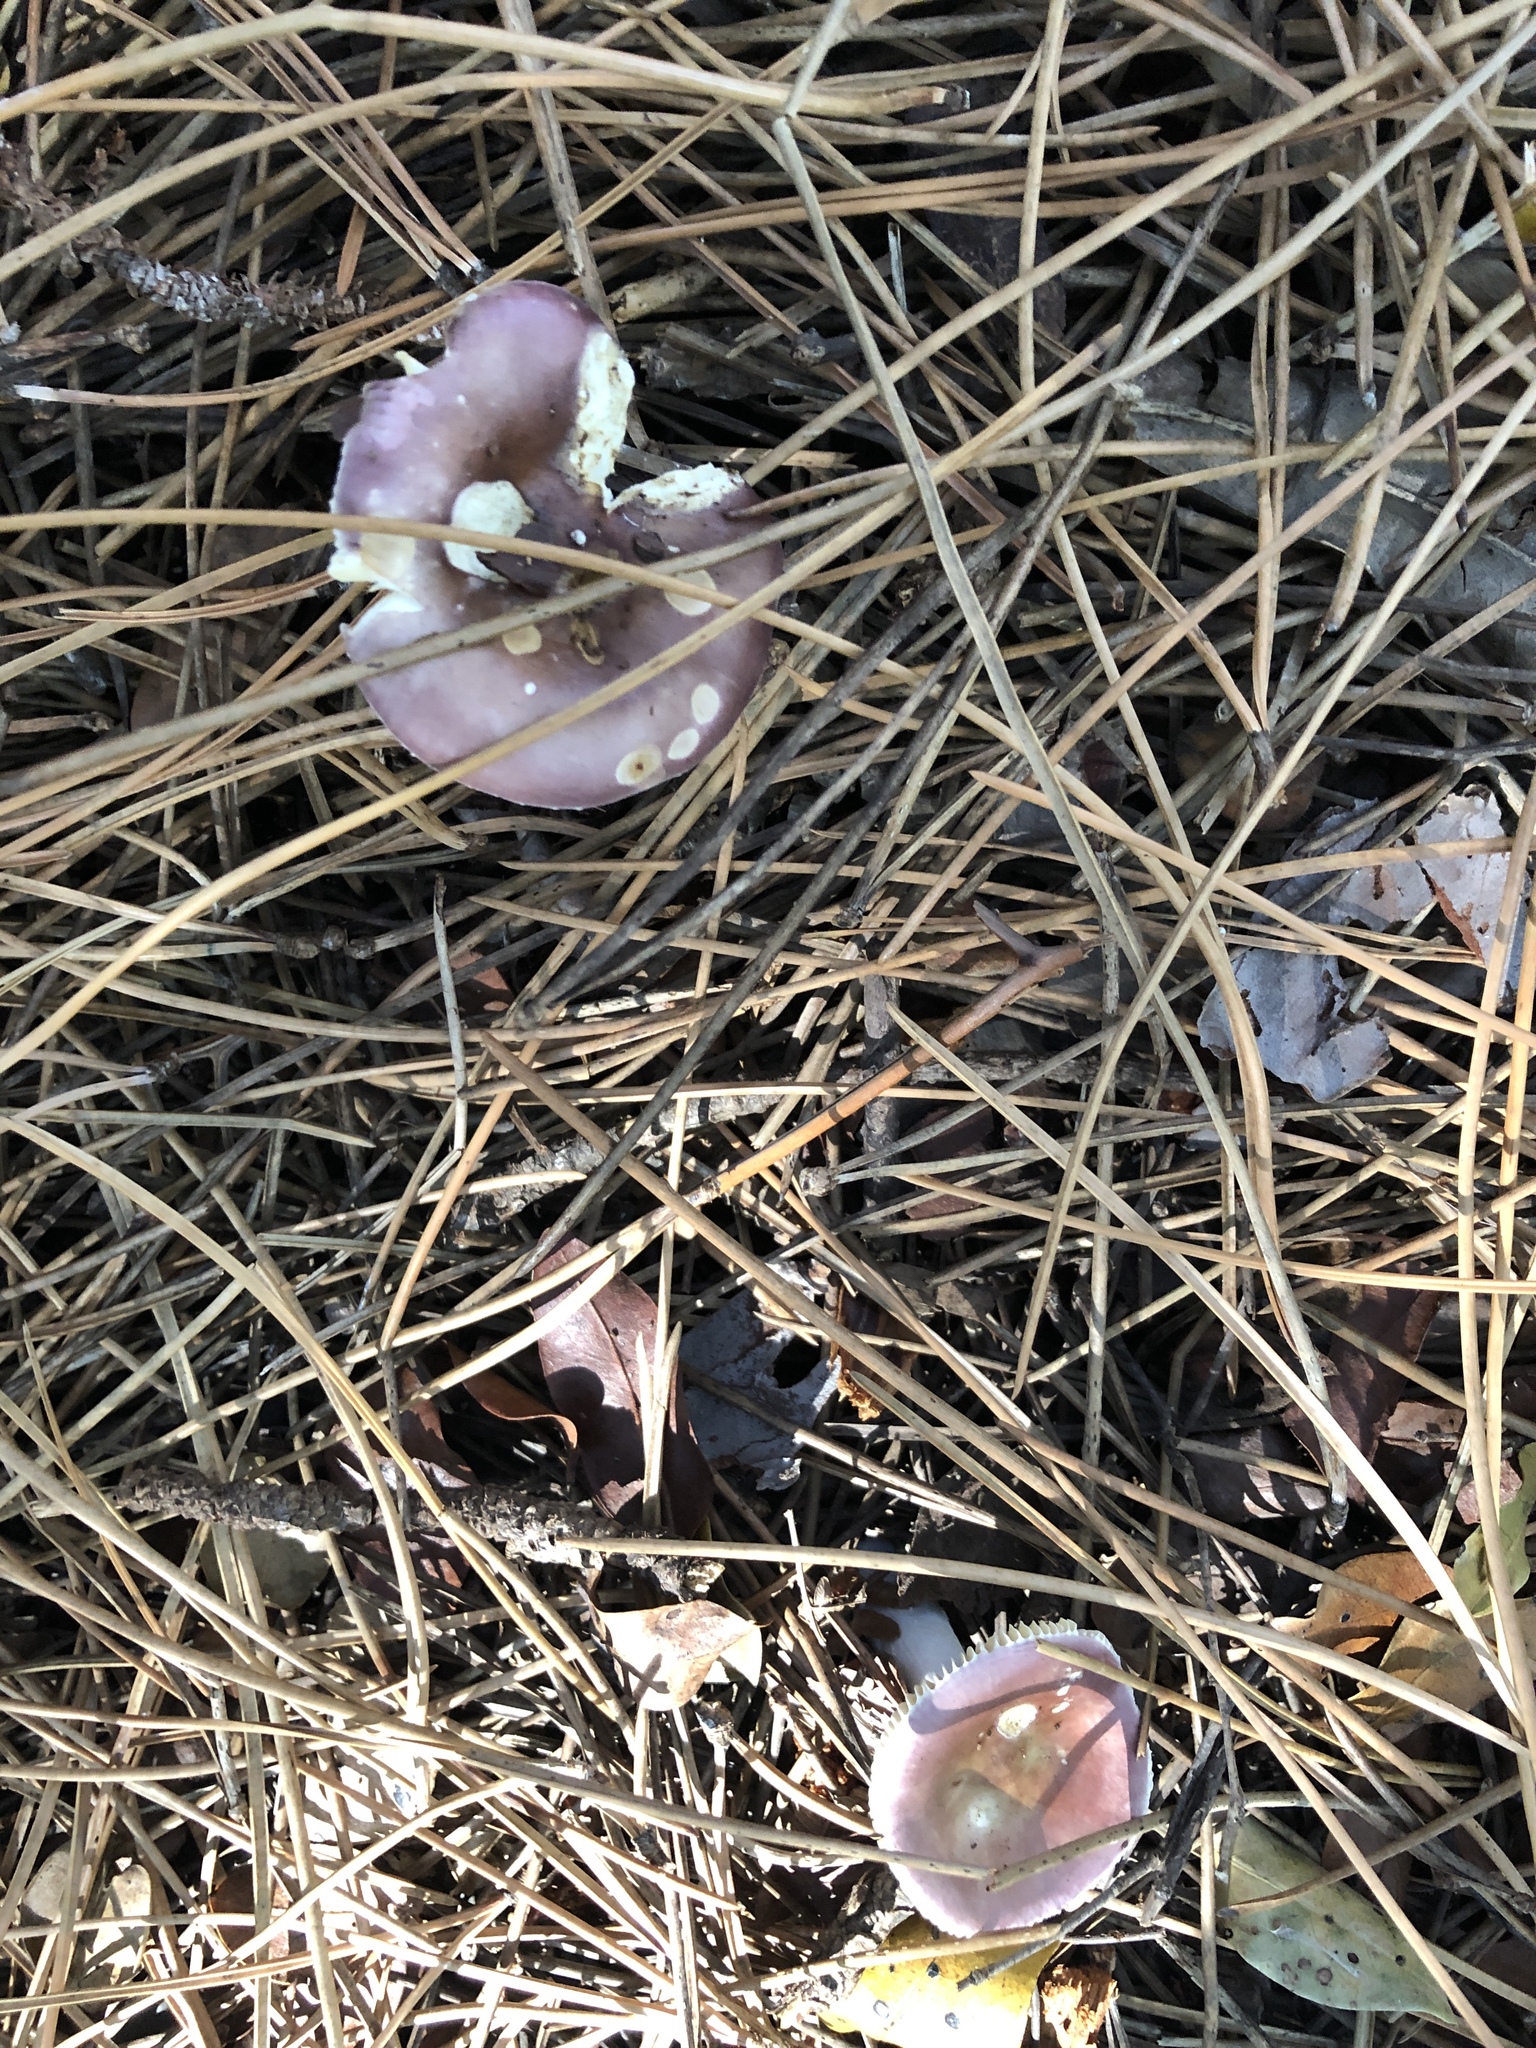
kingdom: Fungi
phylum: Basidiomycota
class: Agaricomycetes
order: Russulales
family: Russulaceae
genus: Russula
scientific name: Russula capensis
